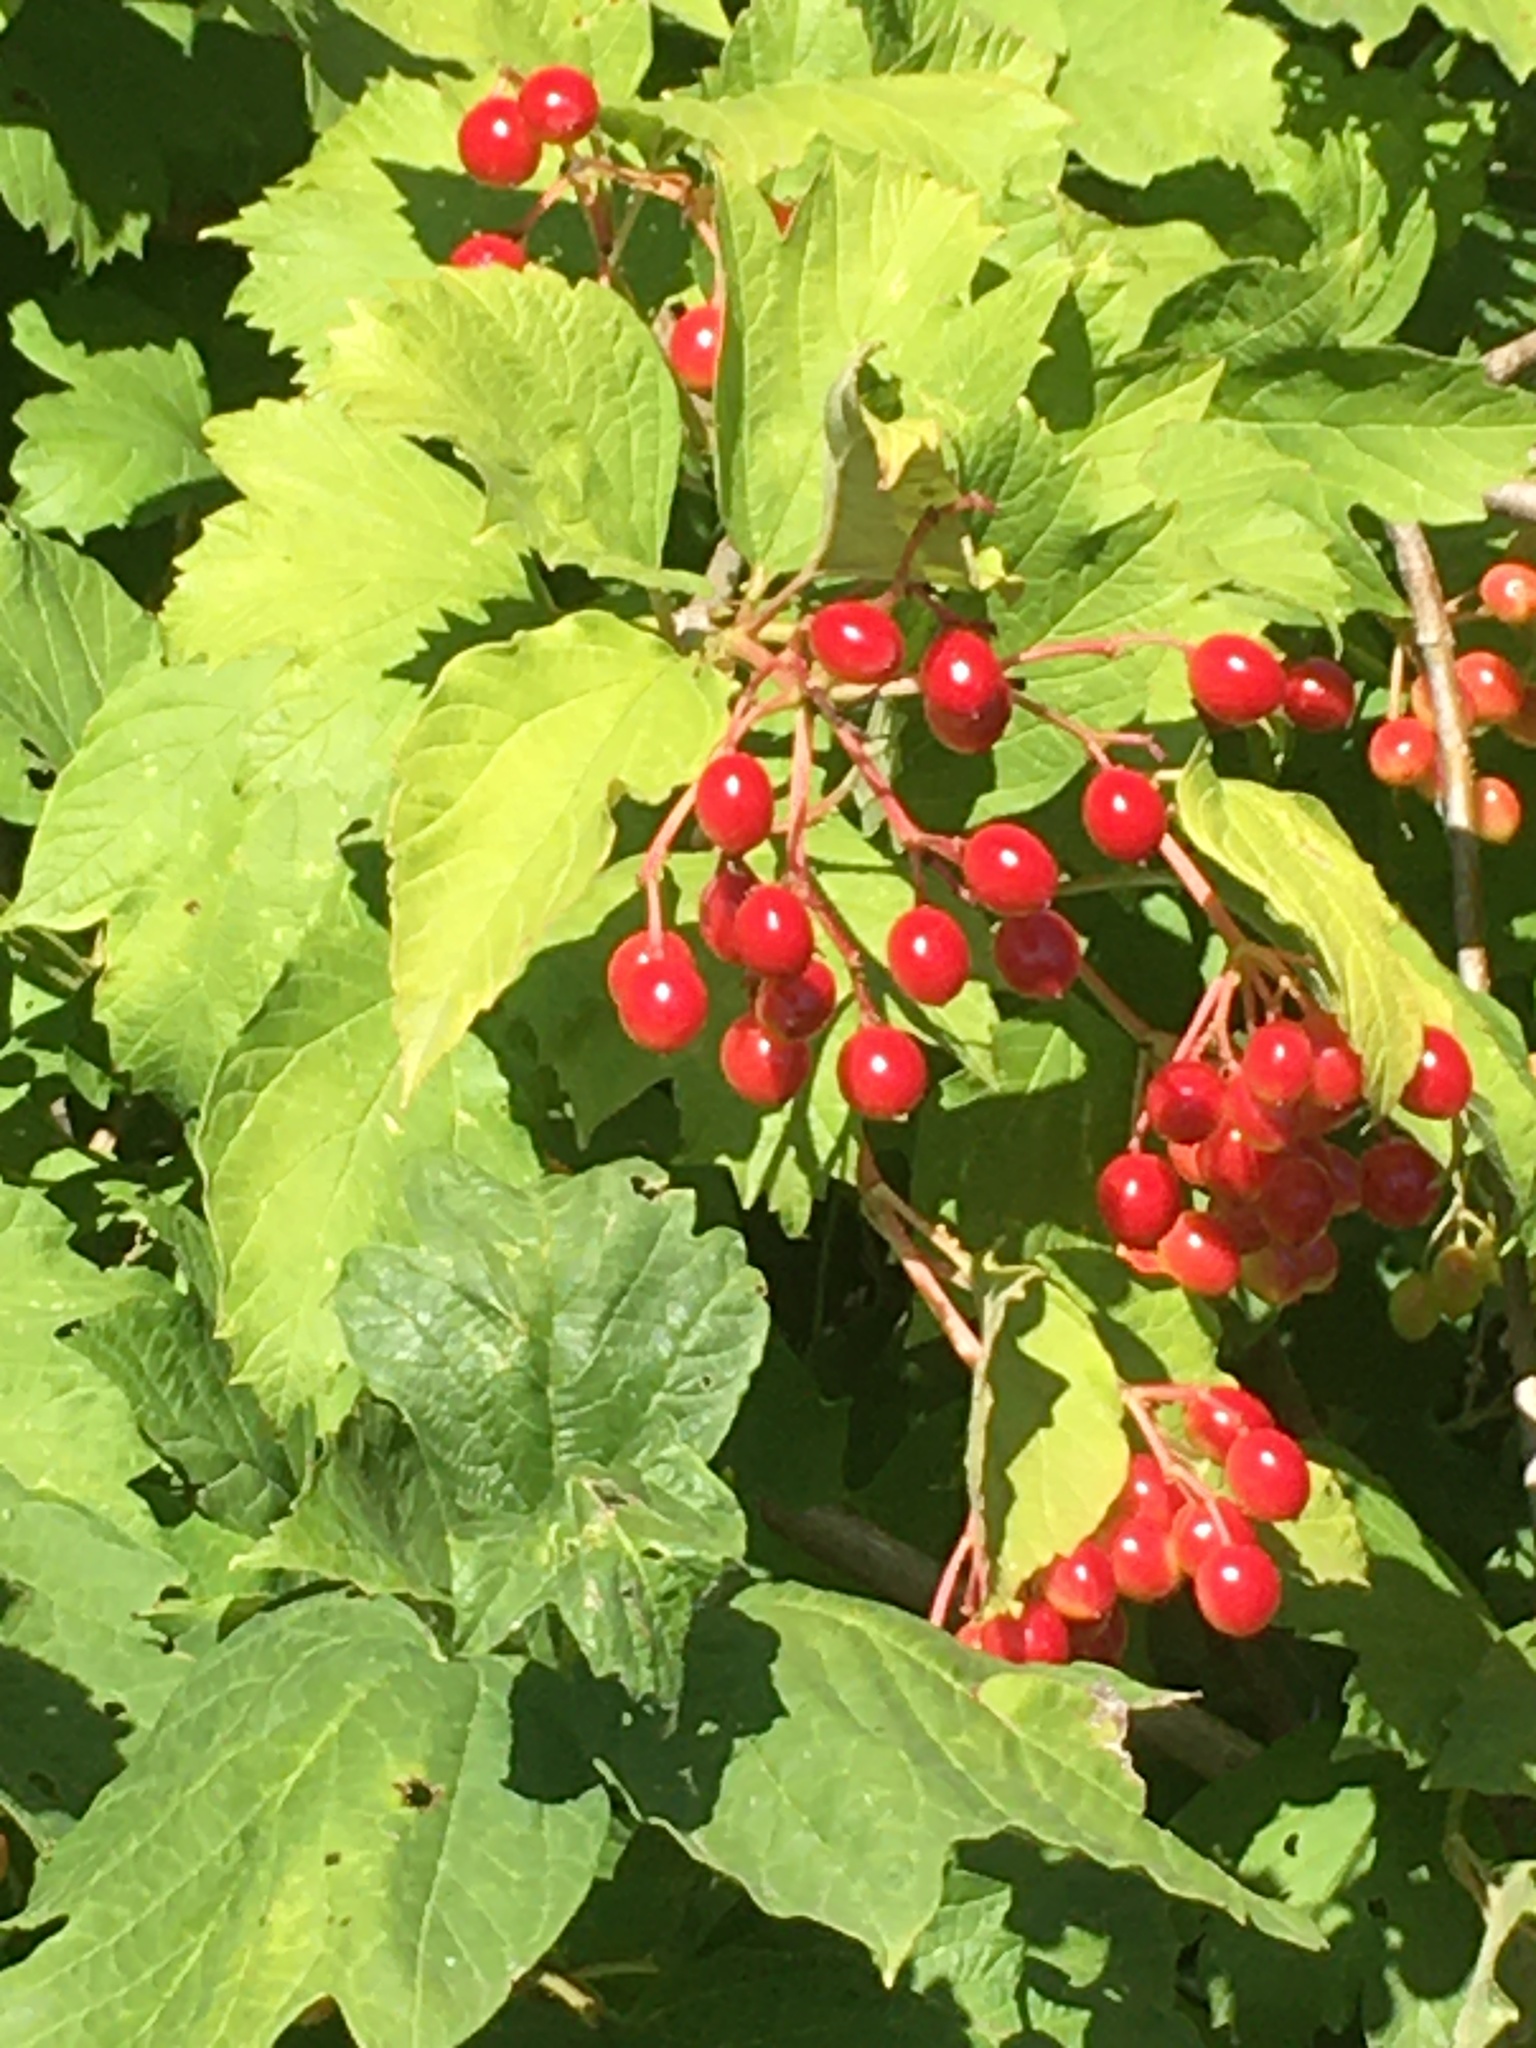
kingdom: Plantae
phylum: Tracheophyta
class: Magnoliopsida
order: Dipsacales
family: Viburnaceae
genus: Viburnum
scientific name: Viburnum opulus
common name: Guelder-rose
